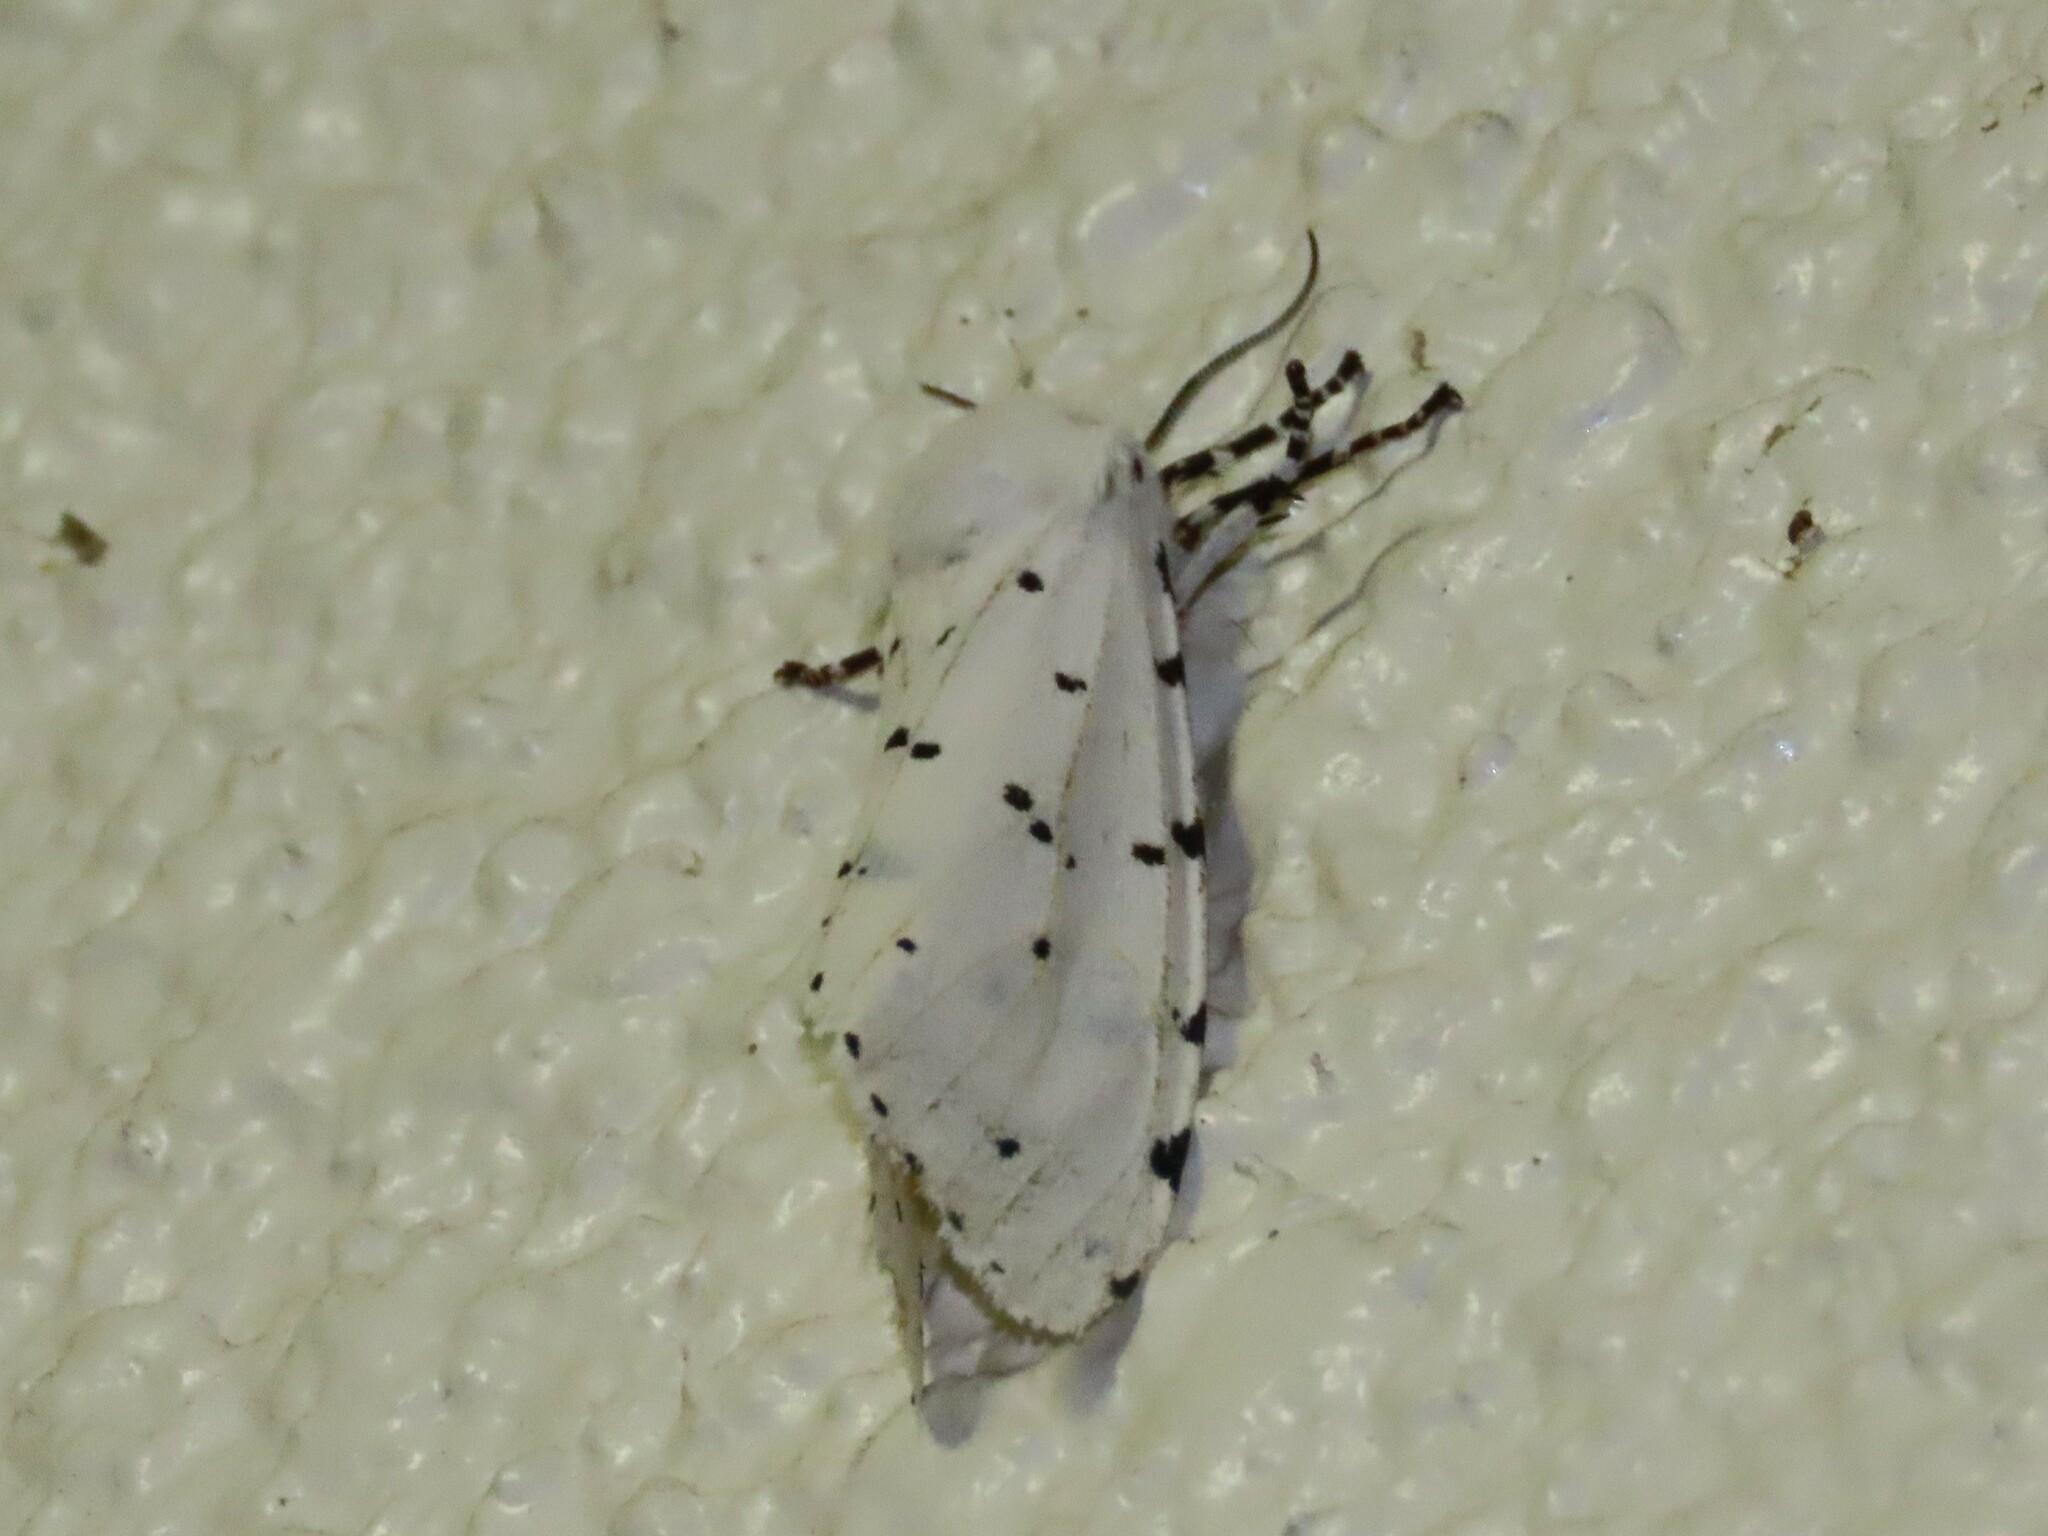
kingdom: Animalia
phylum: Arthropoda
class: Insecta
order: Lepidoptera
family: Erebidae
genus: Estigmene
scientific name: Estigmene acrea
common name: Salt marsh moth
